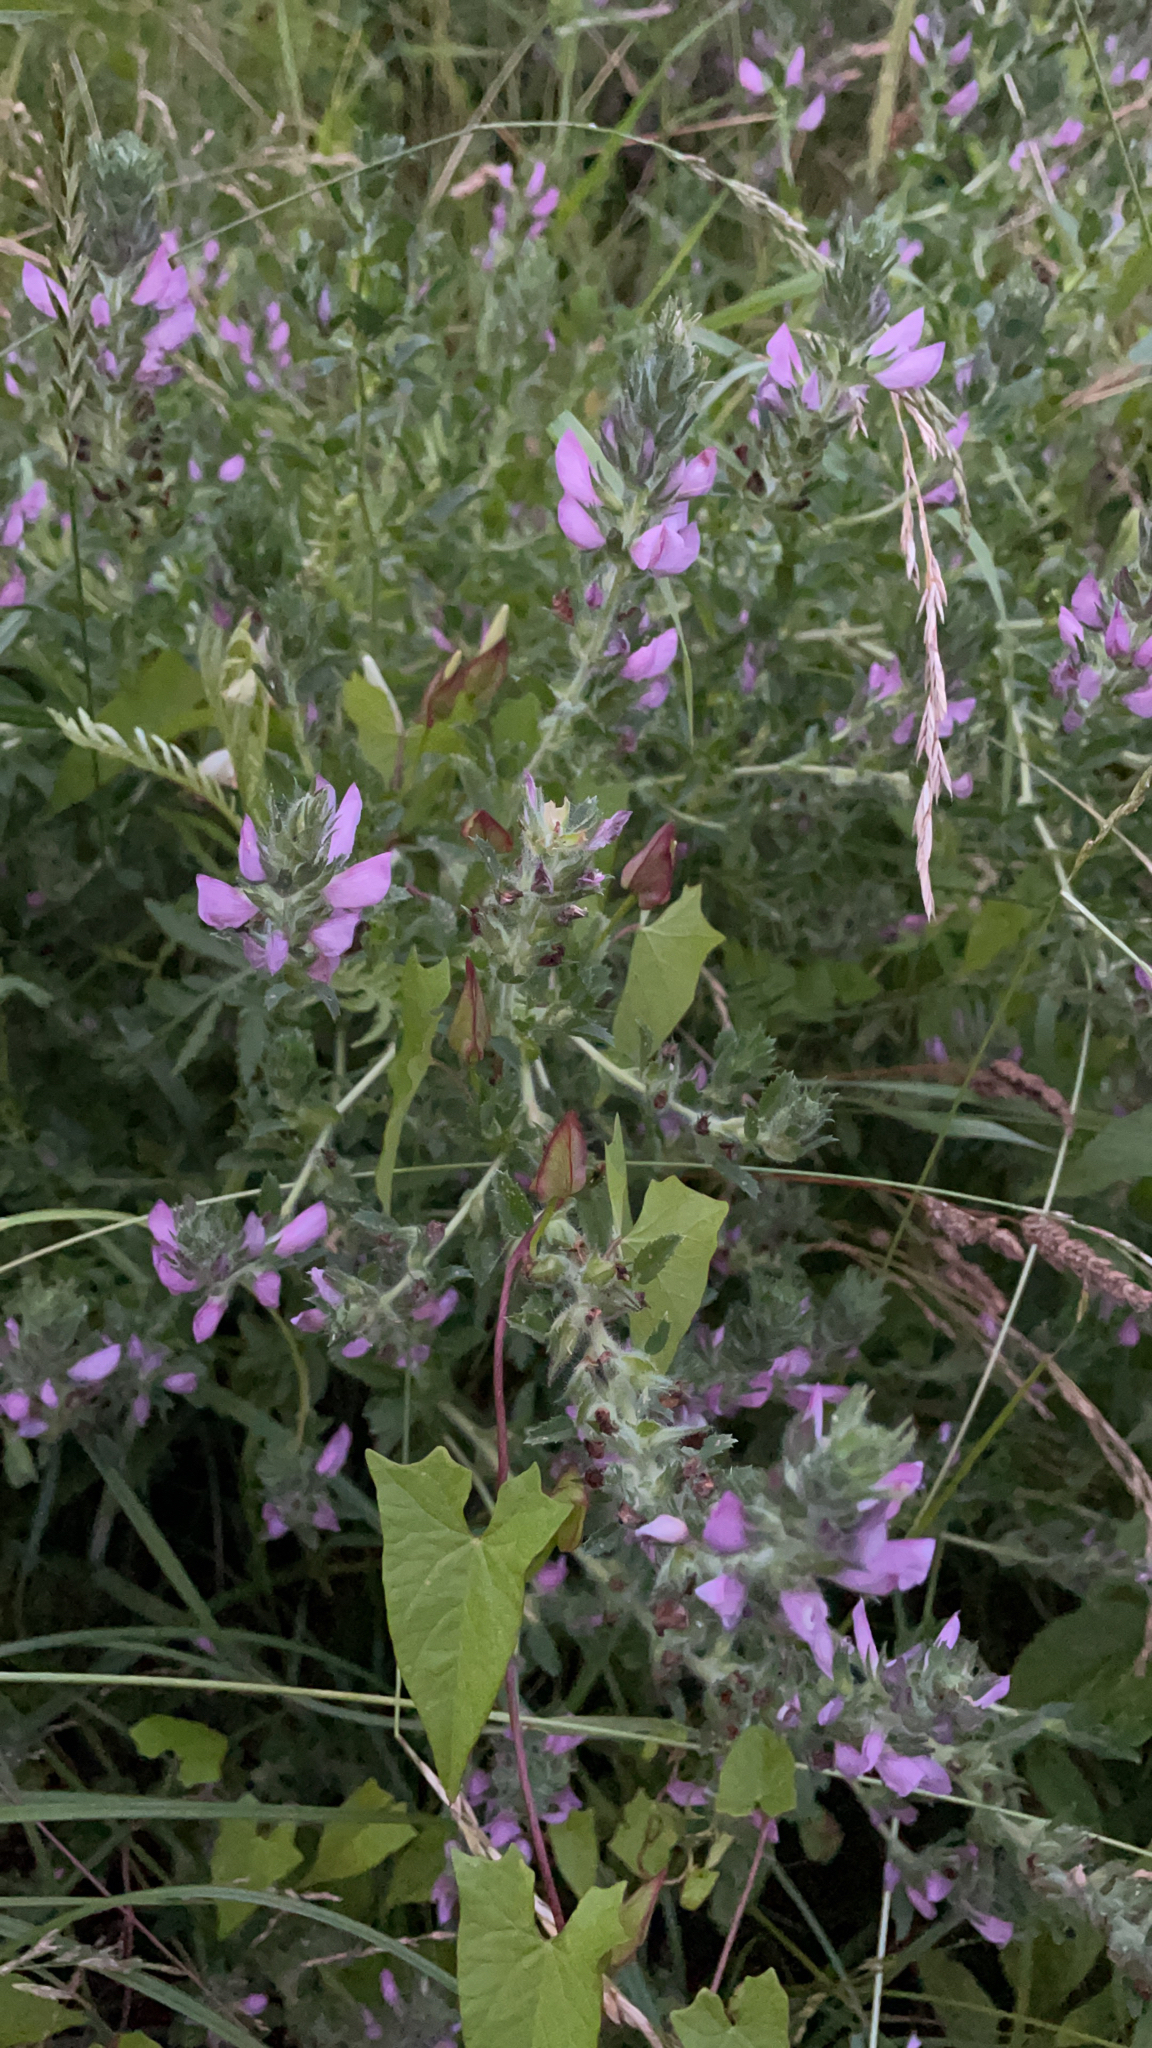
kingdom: Plantae
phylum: Tracheophyta
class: Magnoliopsida
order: Fabales
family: Fabaceae
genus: Ononis
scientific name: Ononis arvensis
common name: Field restharrow
